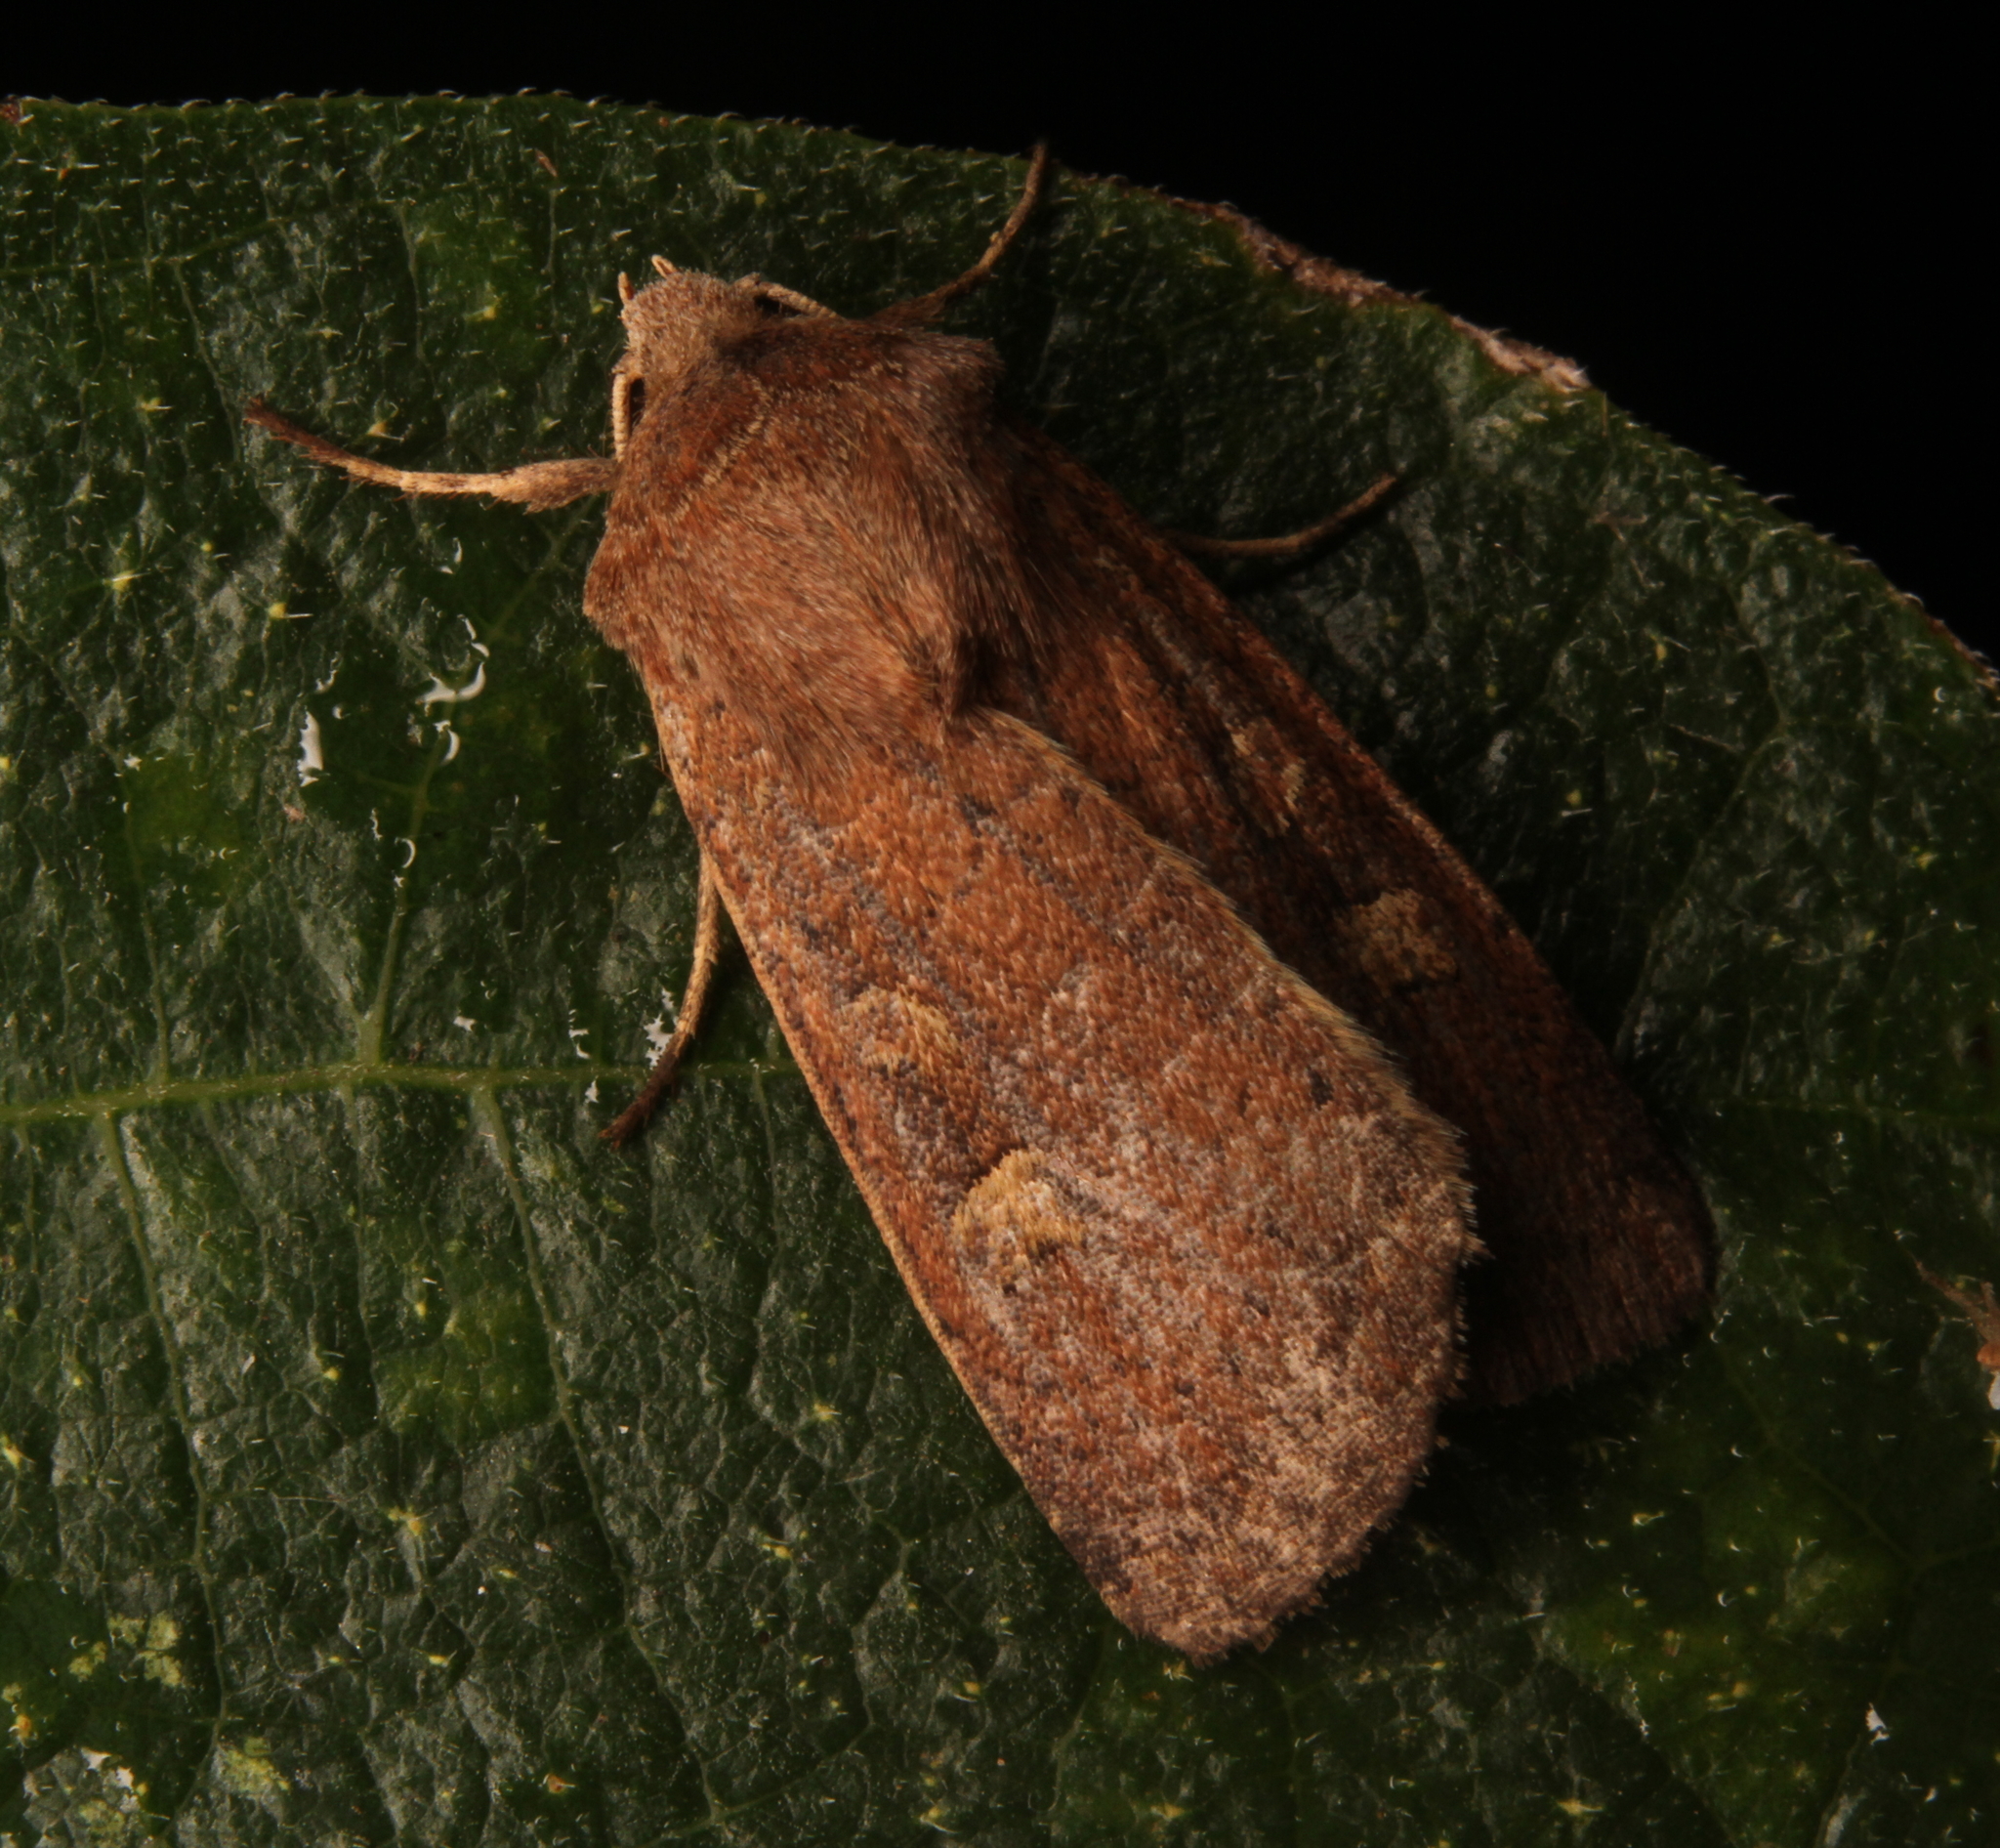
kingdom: Animalia
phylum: Arthropoda
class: Insecta
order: Lepidoptera
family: Noctuidae
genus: Xestia
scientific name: Xestia xanthographa
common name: Square-spot rustic
